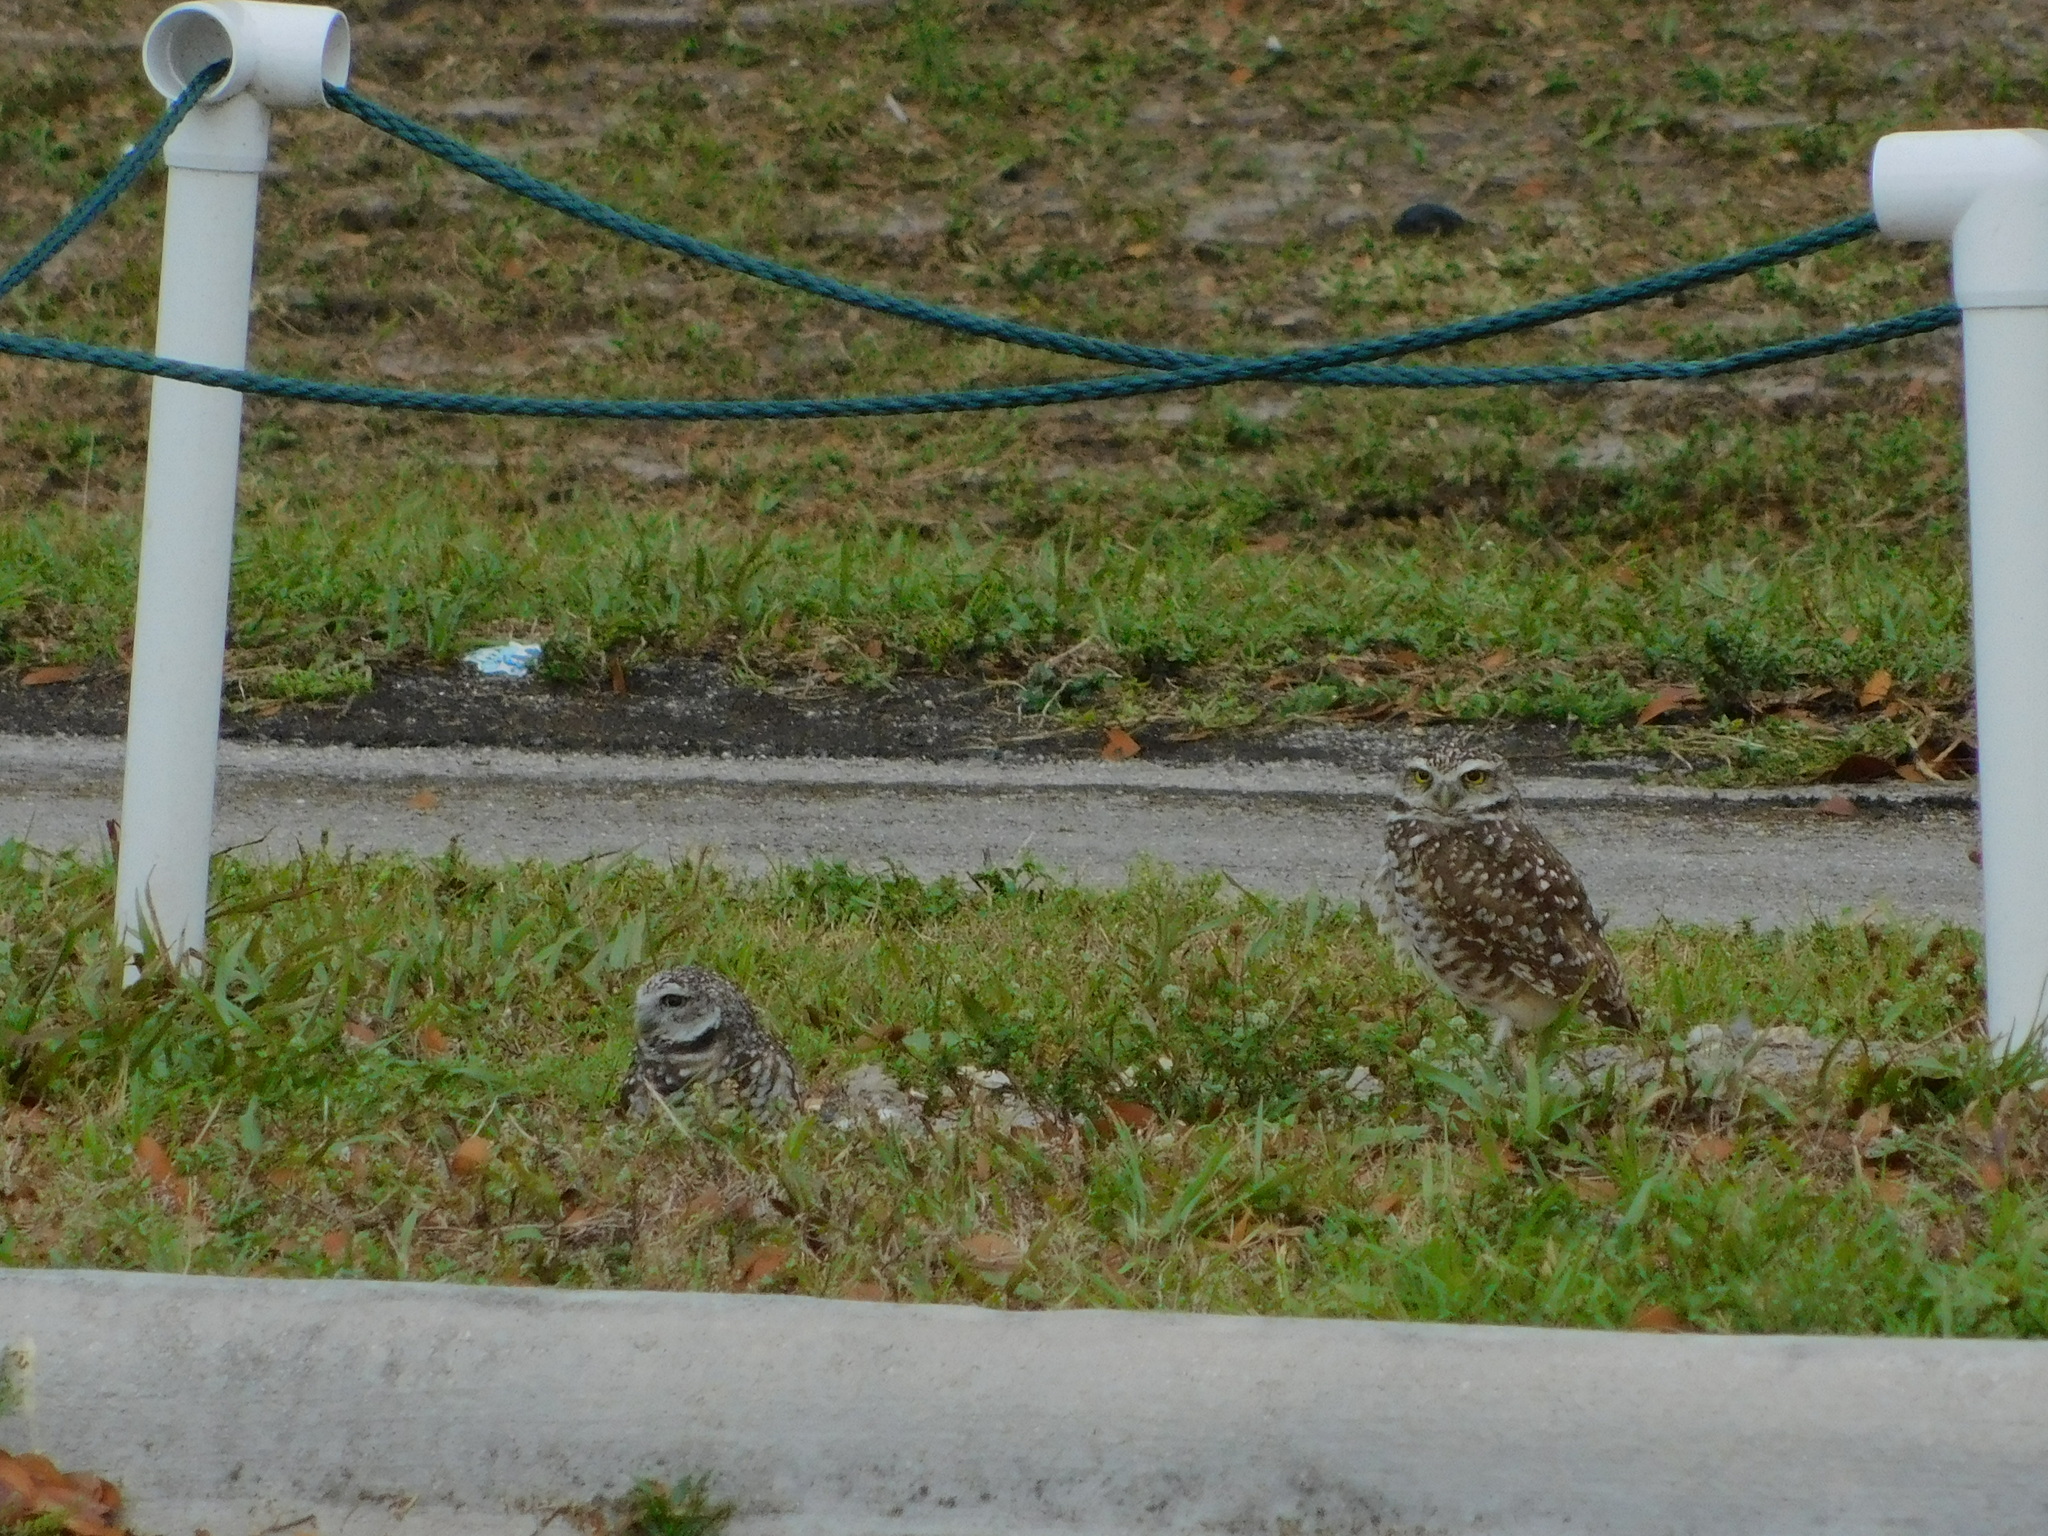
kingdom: Animalia
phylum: Chordata
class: Aves
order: Strigiformes
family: Strigidae
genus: Athene
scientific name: Athene cunicularia
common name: Burrowing owl
